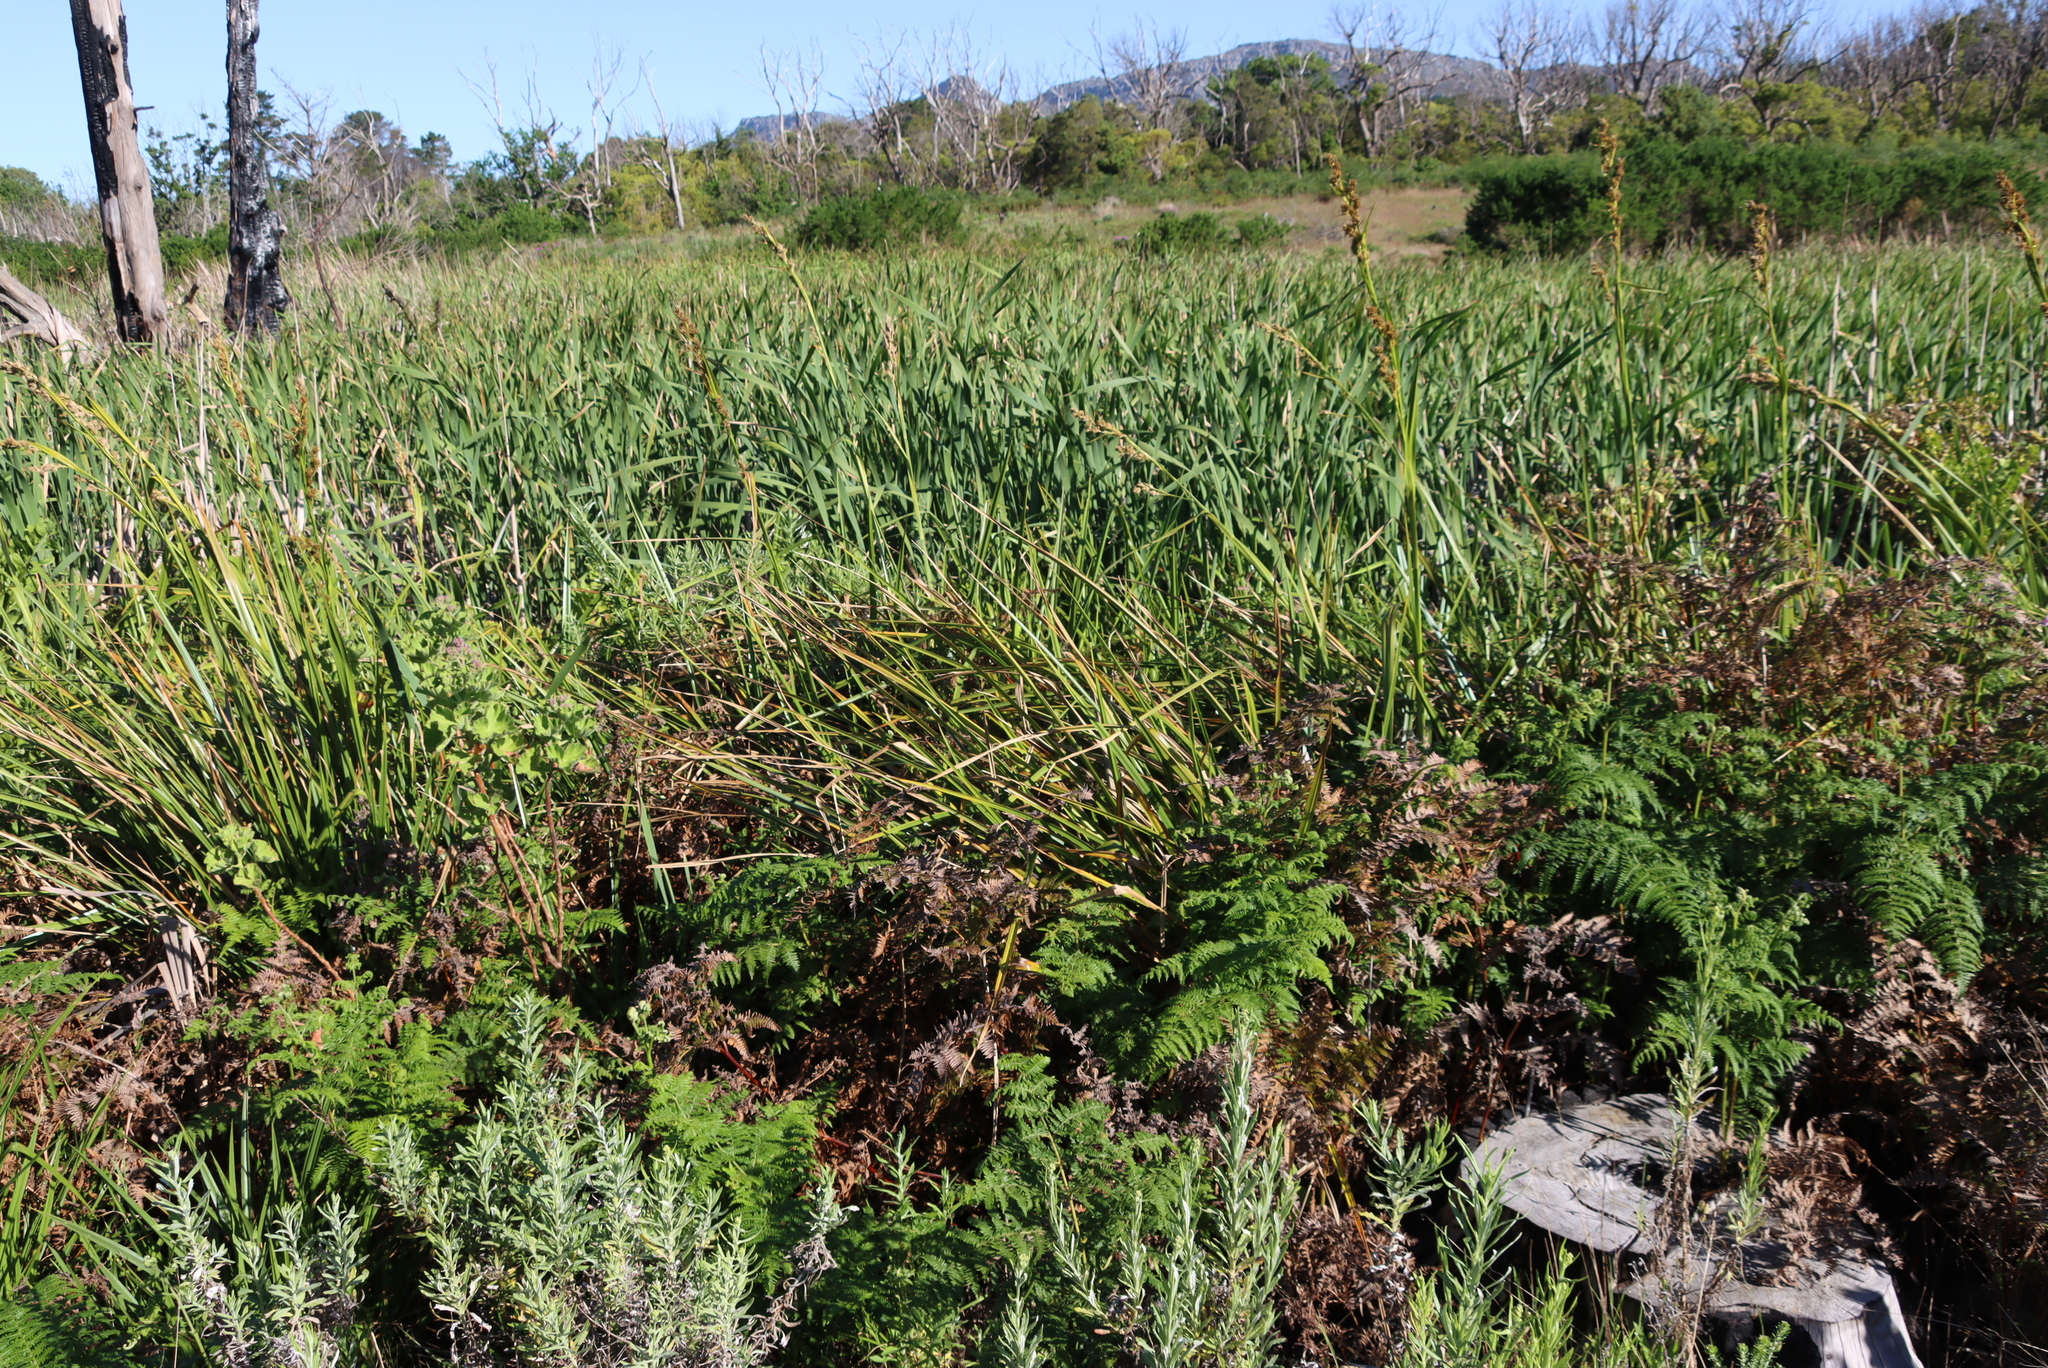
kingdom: Plantae
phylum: Tracheophyta
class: Liliopsida
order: Poales
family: Cyperaceae
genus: Carpha
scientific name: Carpha glomerata
